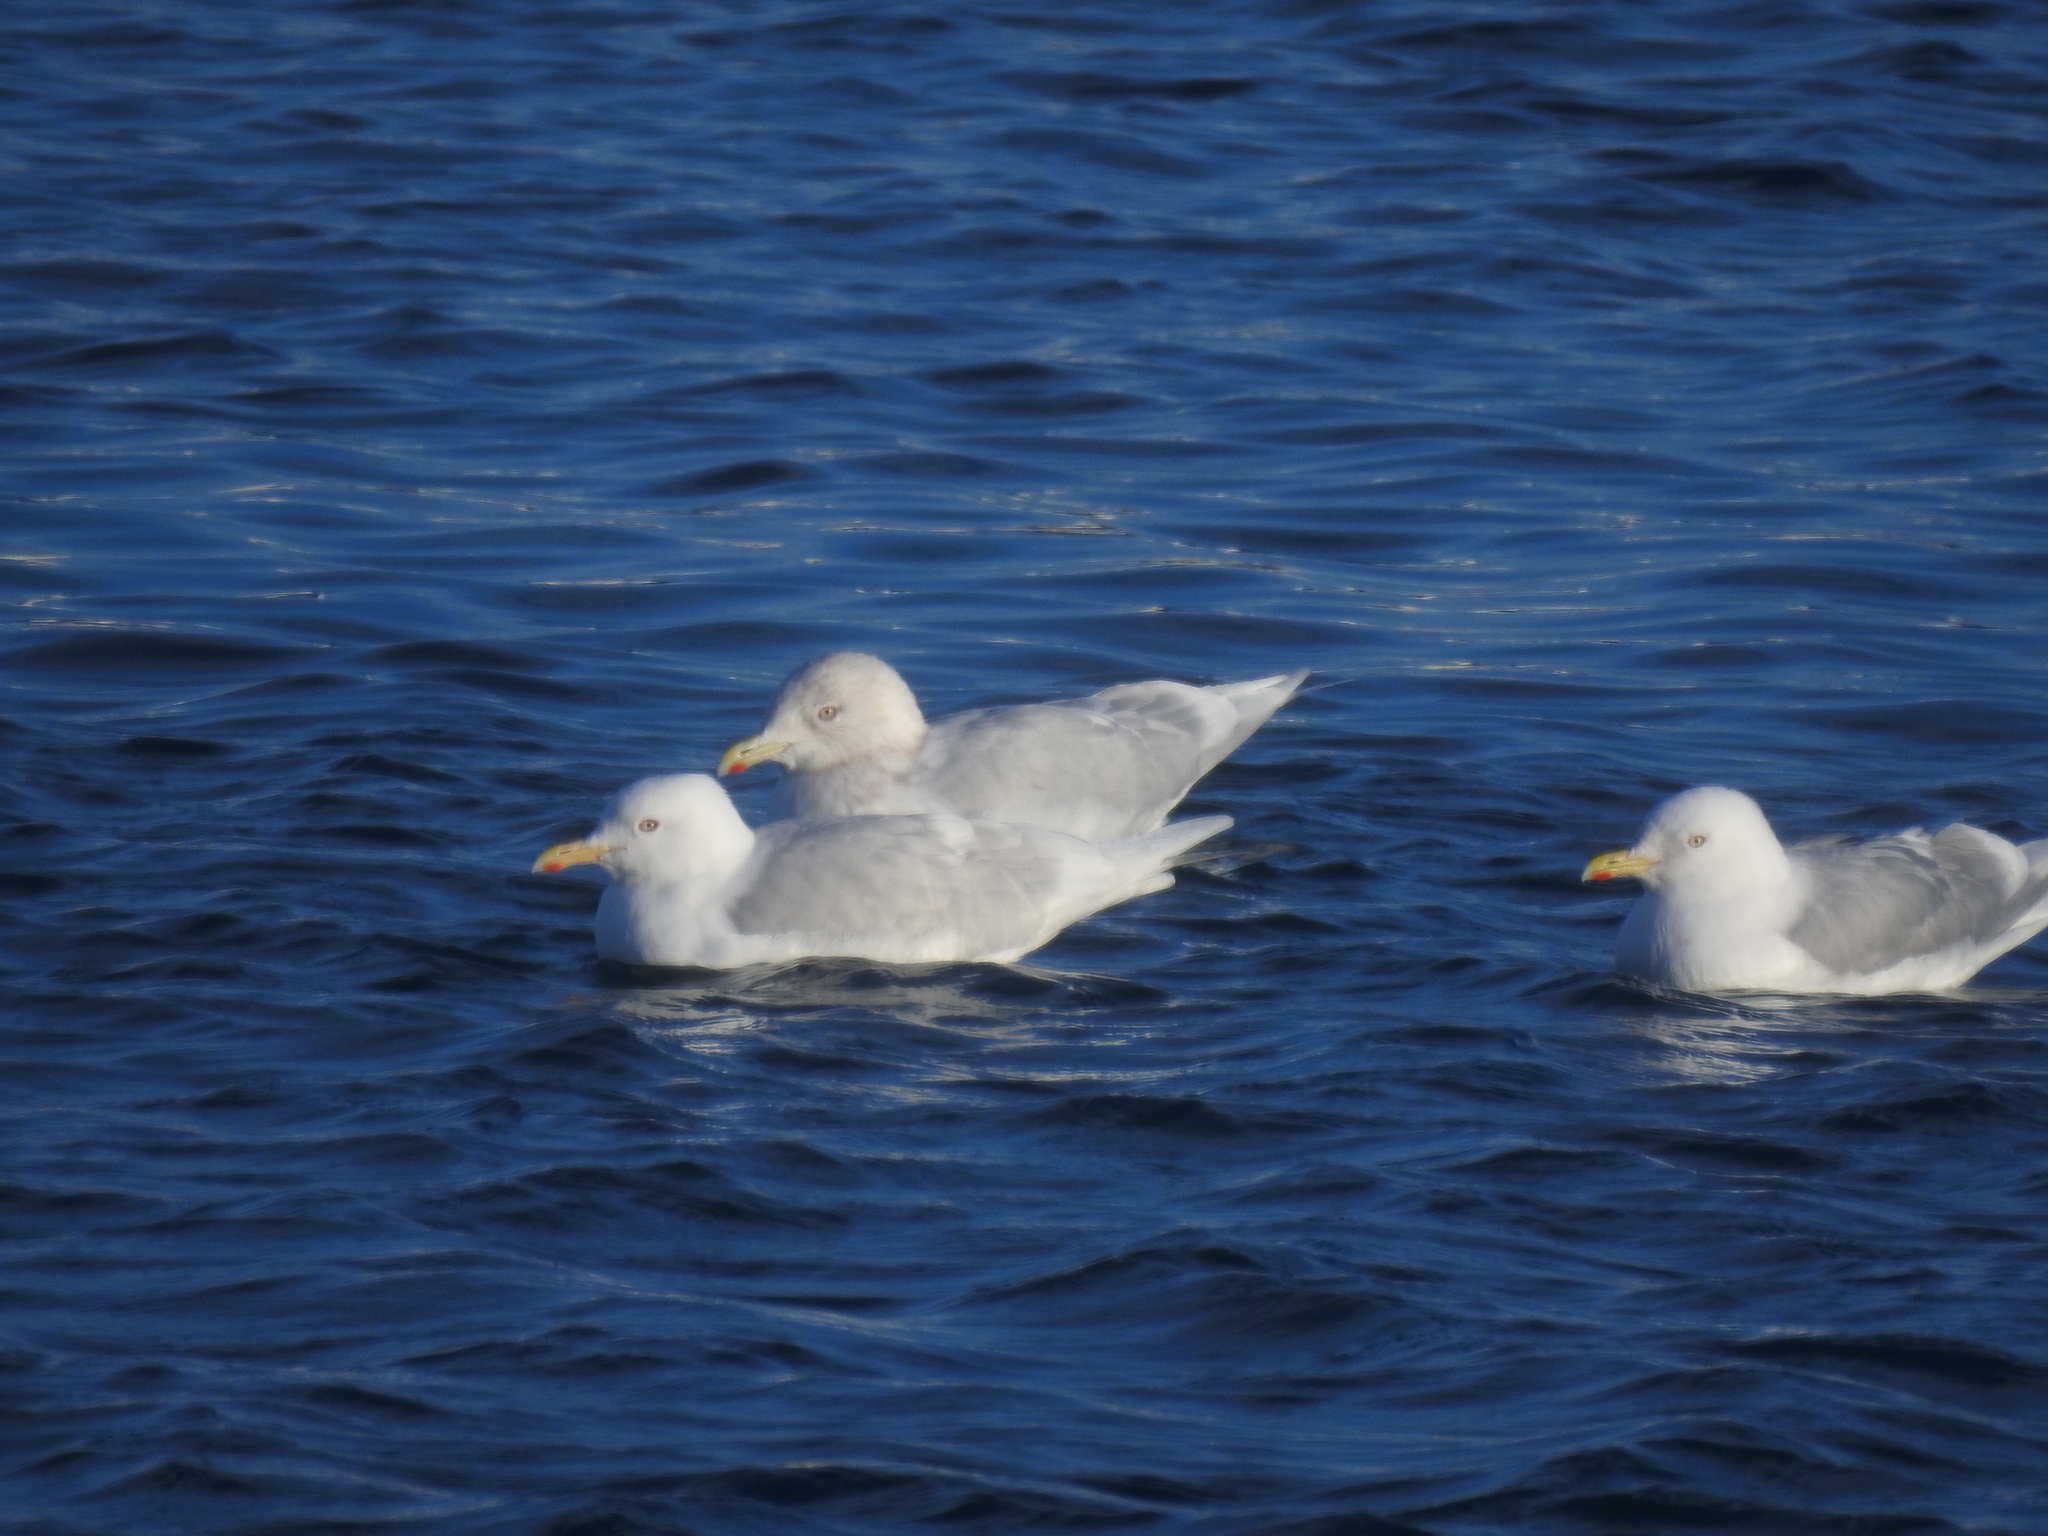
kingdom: Animalia
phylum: Chordata
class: Aves
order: Charadriiformes
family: Laridae
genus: Larus
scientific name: Larus glaucoides
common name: Iceland gull
